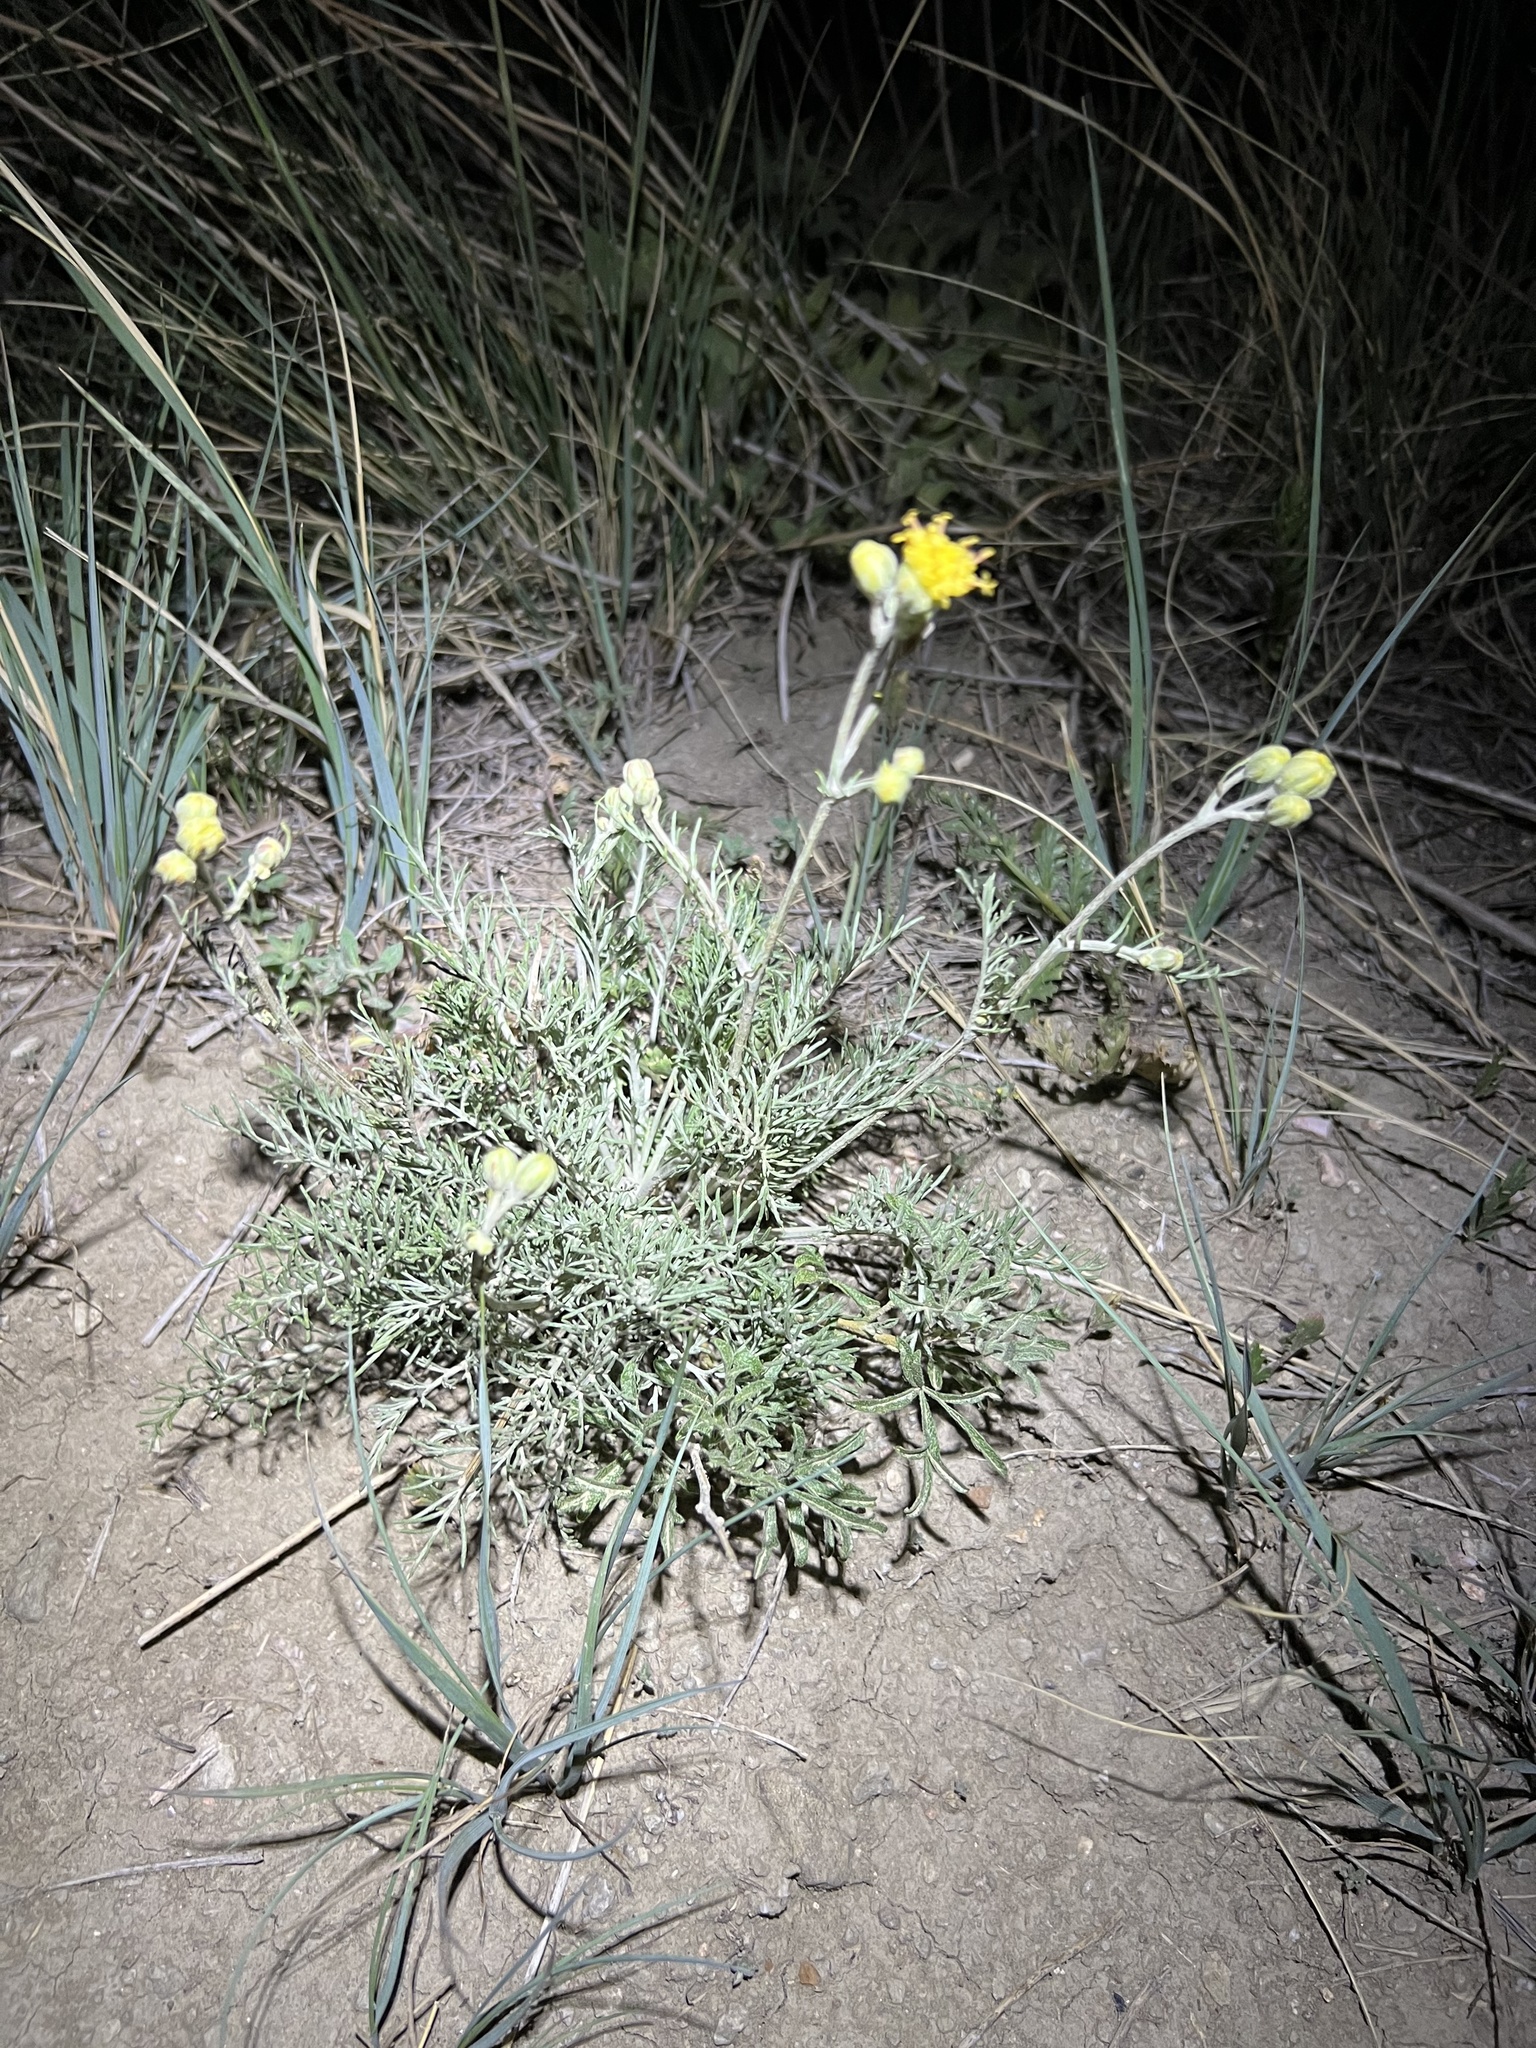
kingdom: Plantae
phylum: Tracheophyta
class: Magnoliopsida
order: Asterales
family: Asteraceae
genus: Hymenopappus
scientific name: Hymenopappus filifolius
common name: Columbia cutleaf
